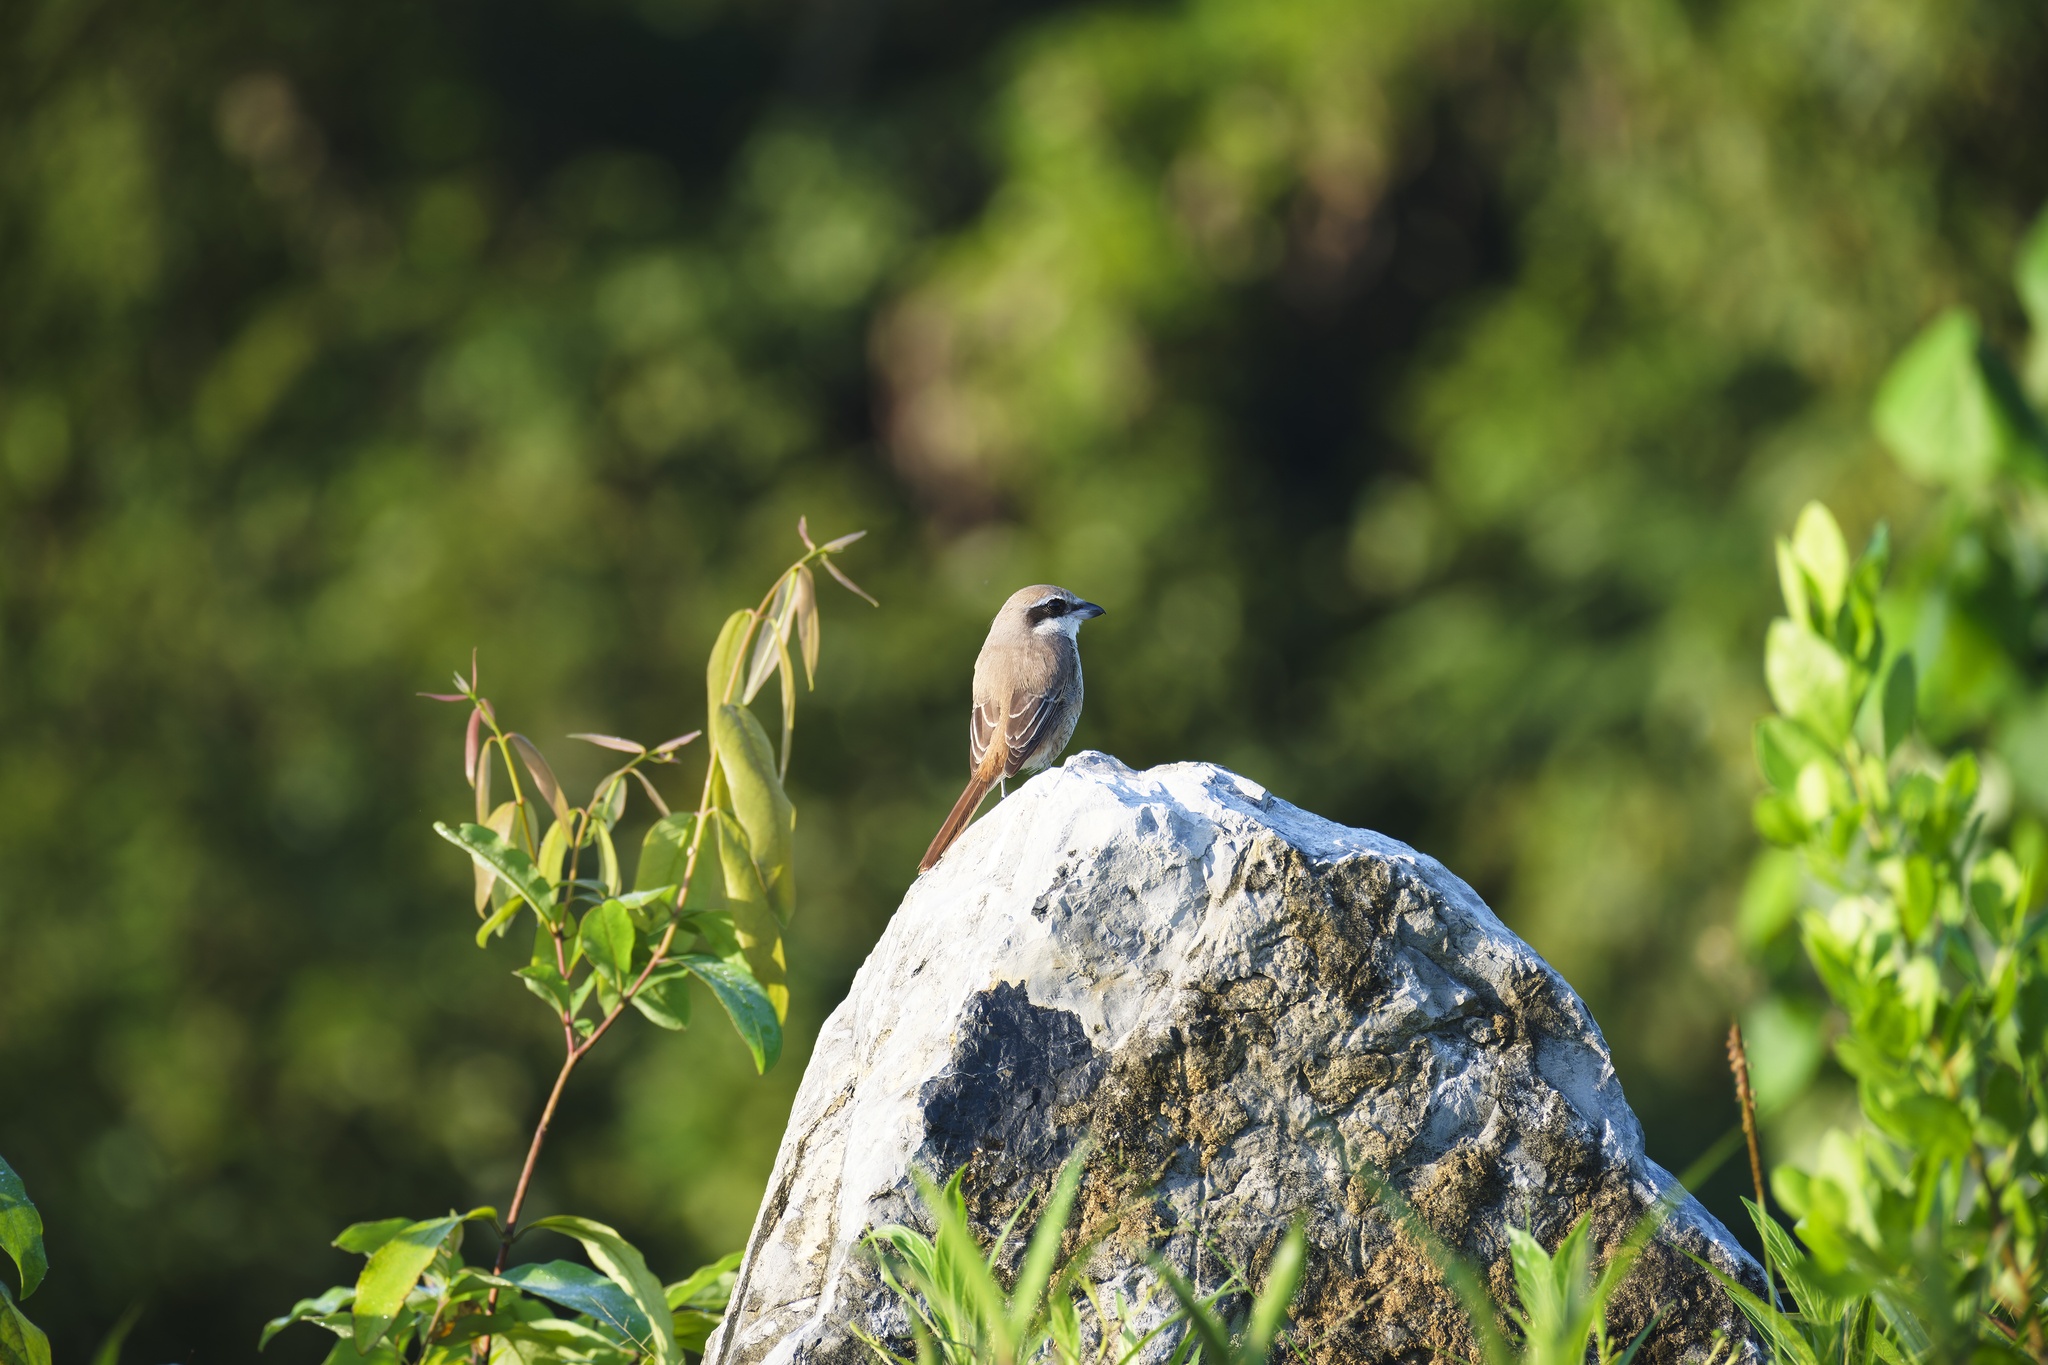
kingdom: Animalia
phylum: Chordata
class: Aves
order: Passeriformes
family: Laniidae
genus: Lanius
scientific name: Lanius cristatus
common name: Brown shrike
